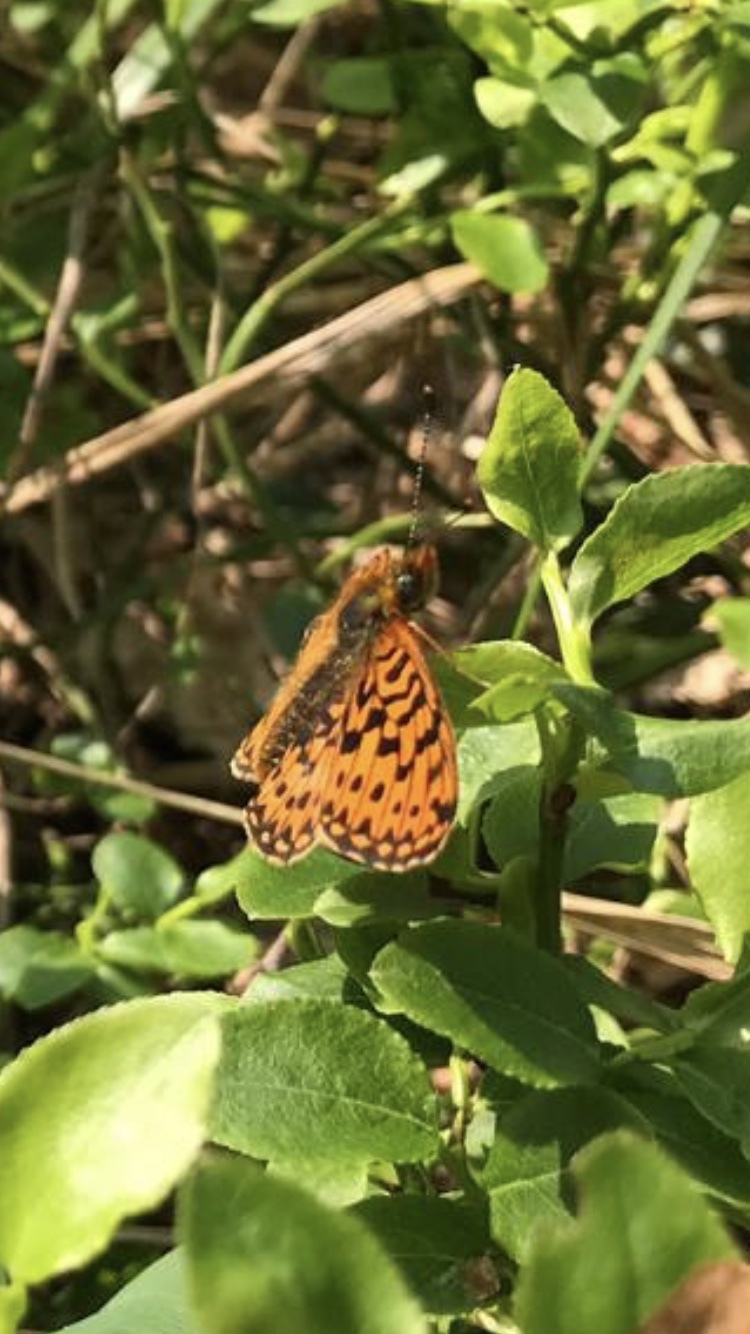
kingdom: Animalia
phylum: Arthropoda
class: Insecta
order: Lepidoptera
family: Nymphalidae
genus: Clossiana
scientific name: Clossiana euphrosyne
